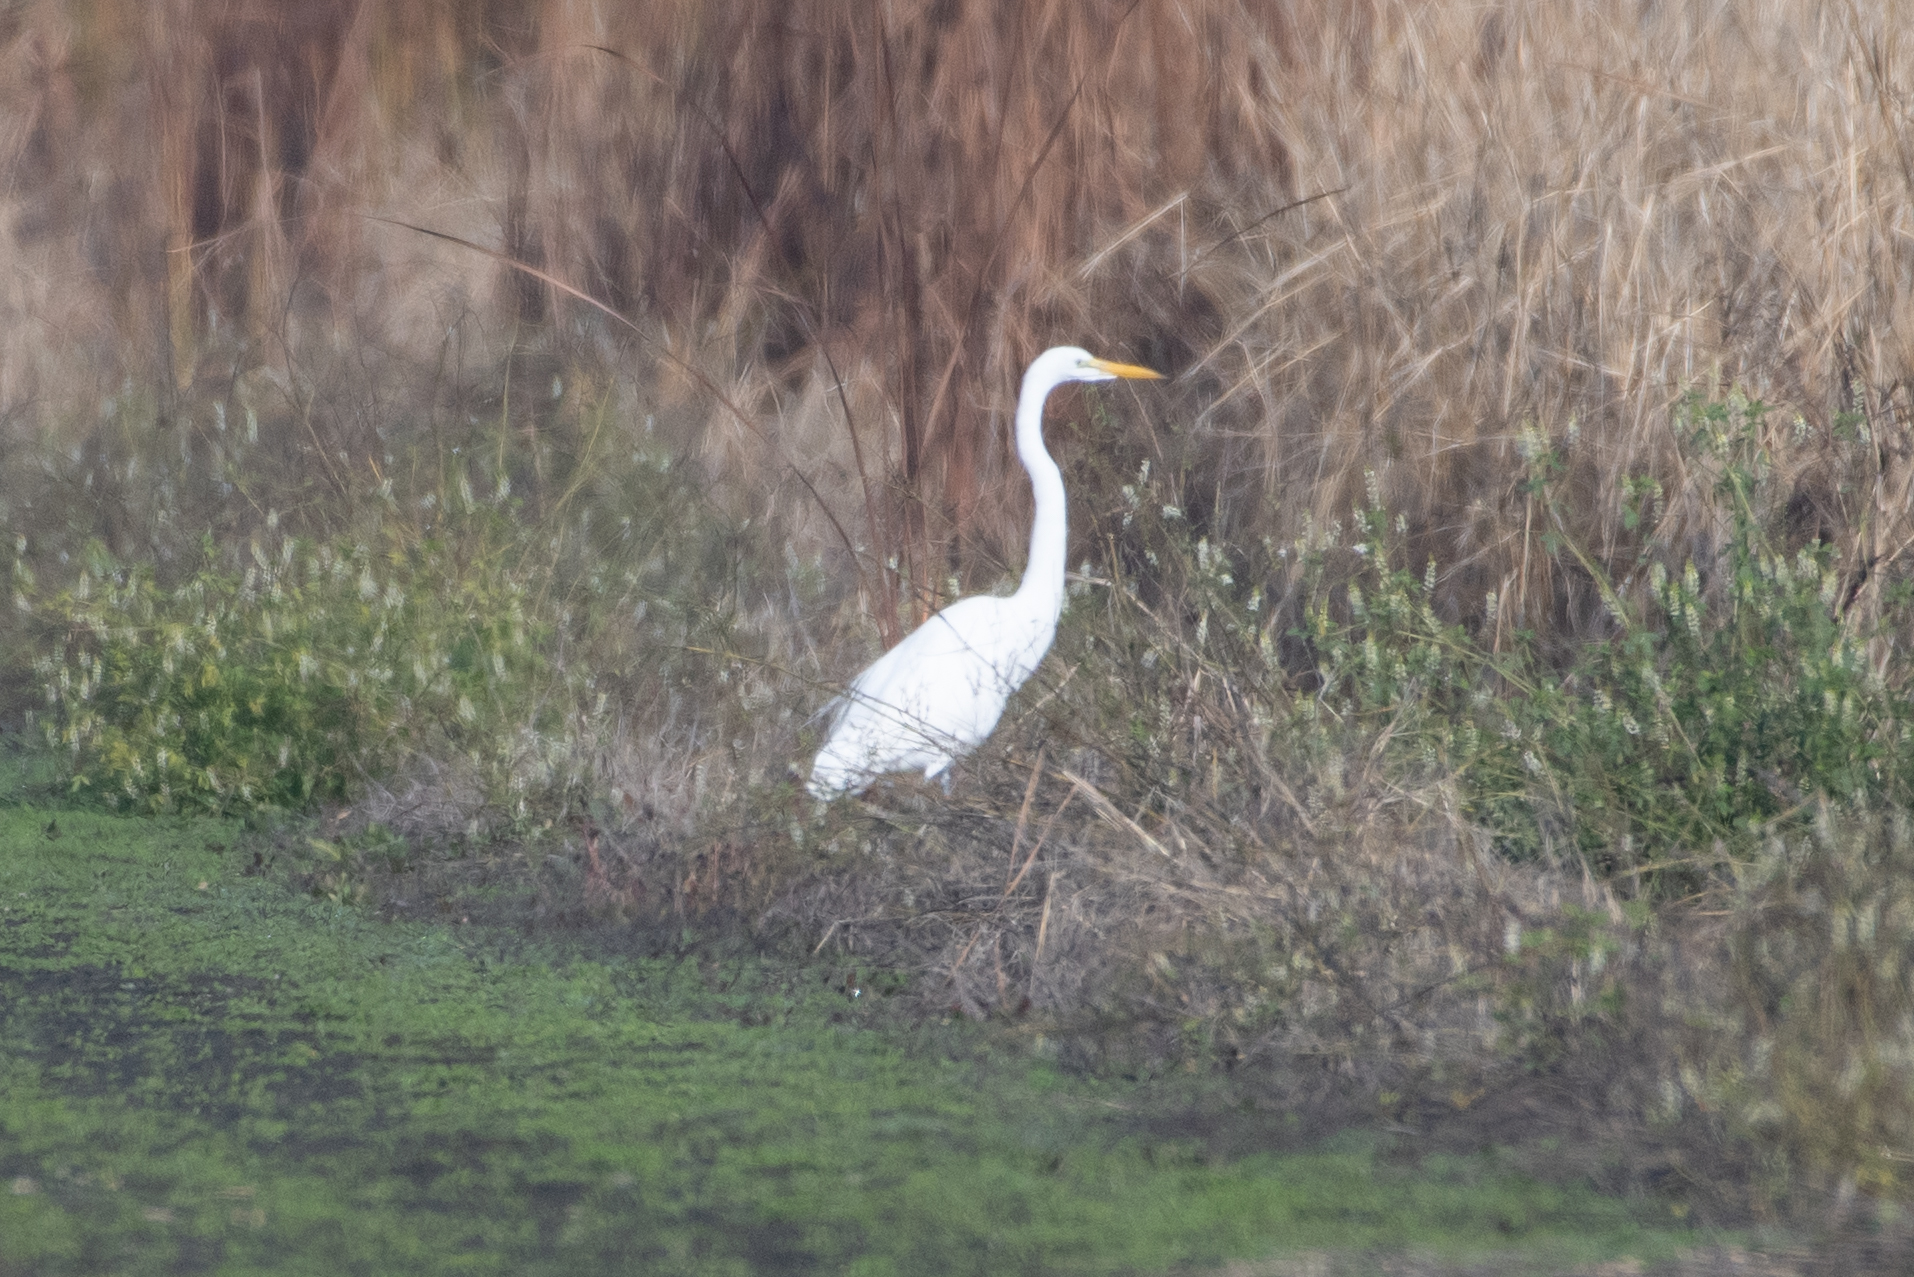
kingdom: Animalia
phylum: Chordata
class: Aves
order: Pelecaniformes
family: Ardeidae
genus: Ardea
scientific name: Ardea alba
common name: Great egret
